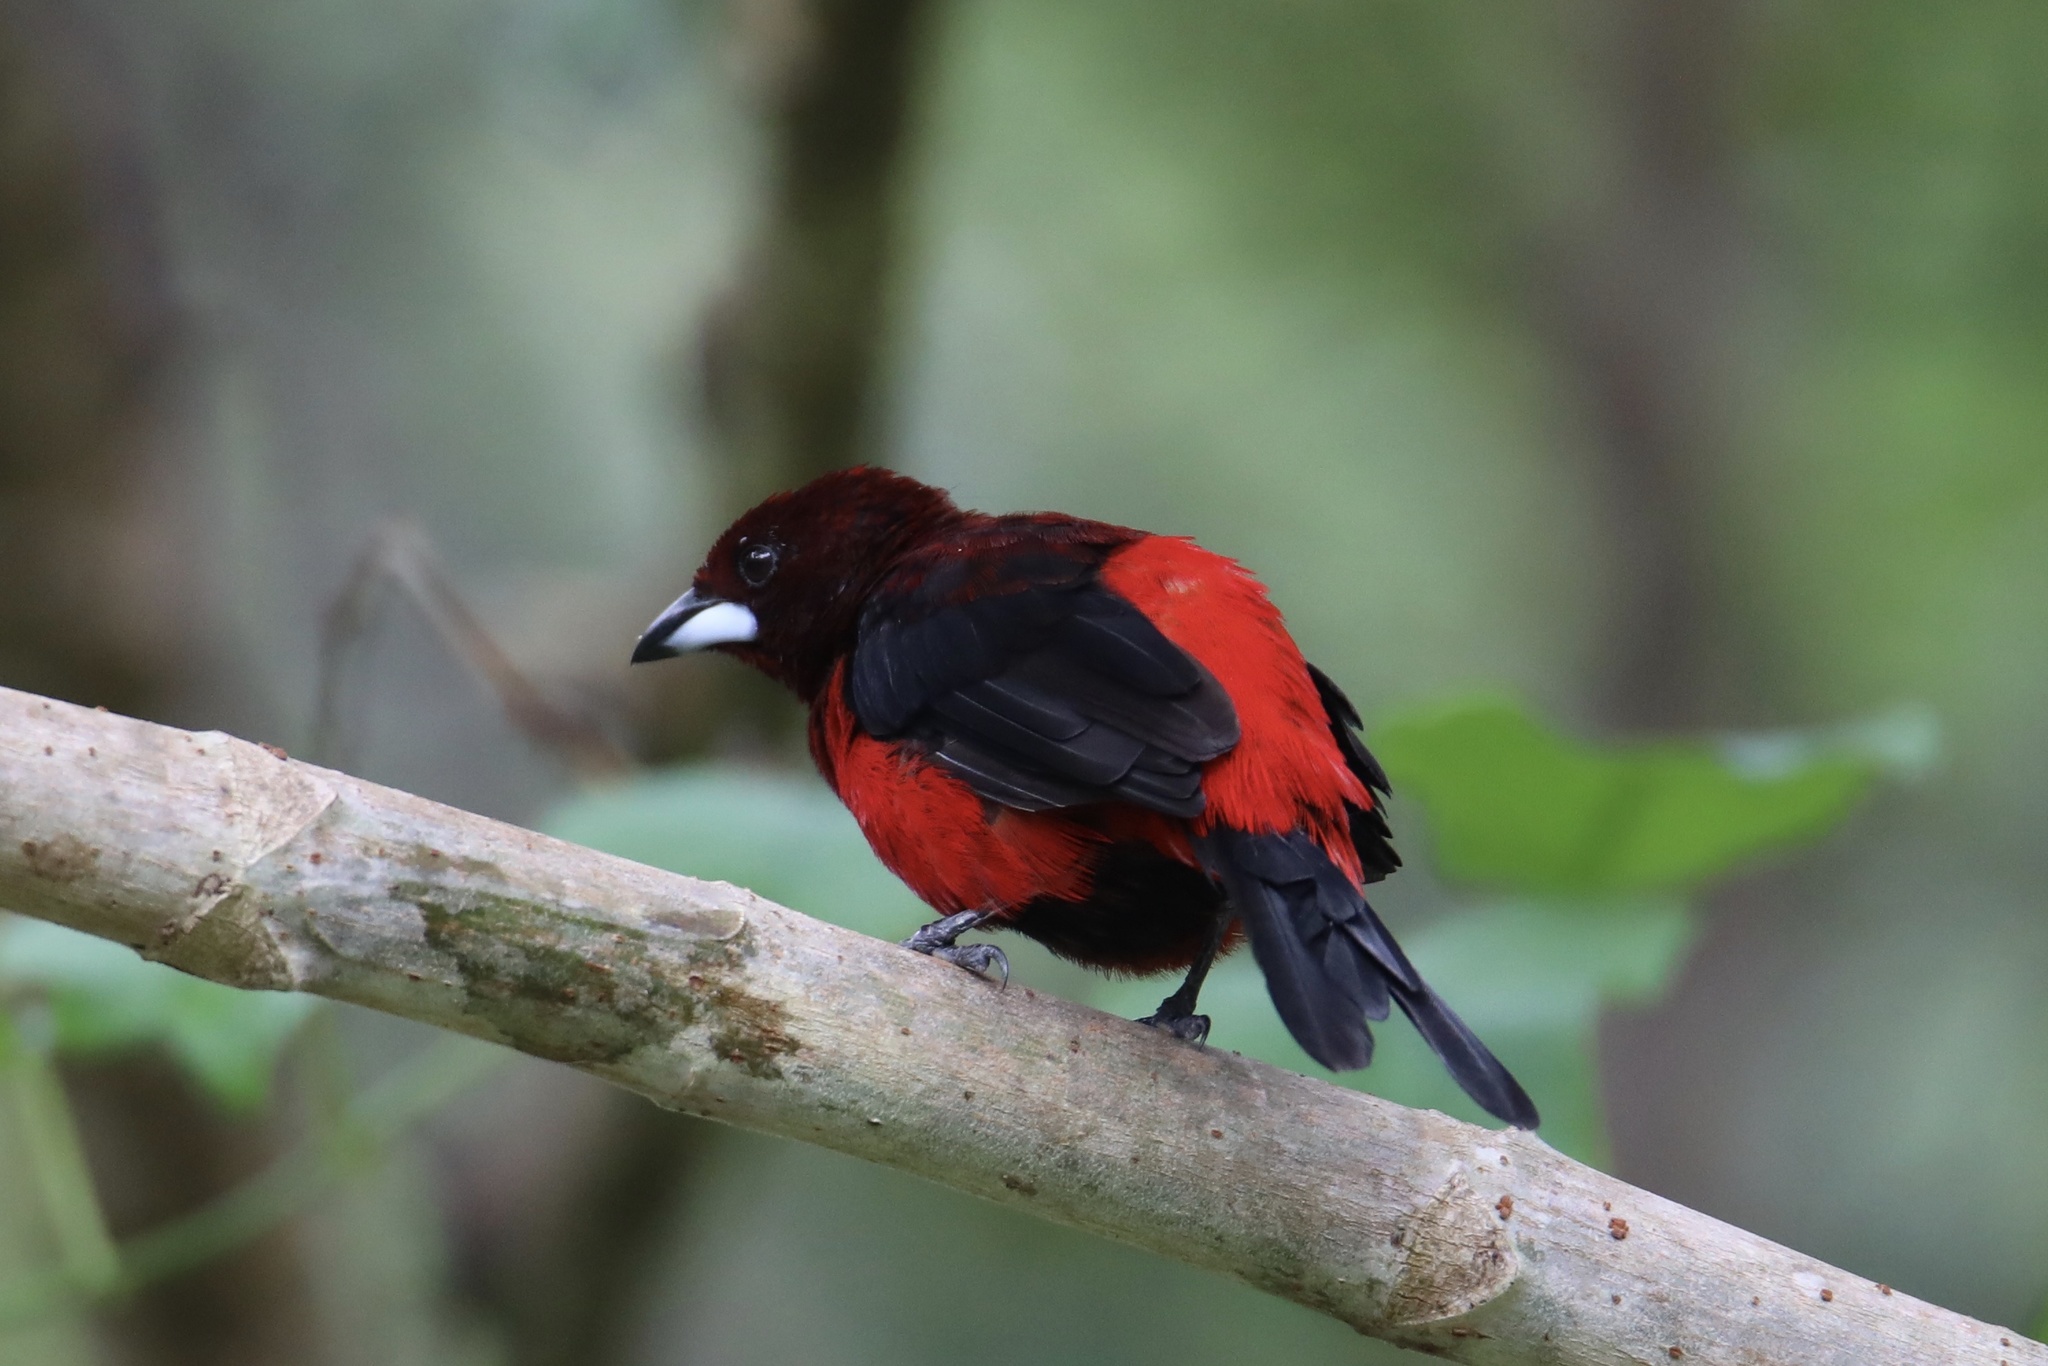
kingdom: Animalia
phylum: Chordata
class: Aves
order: Passeriformes
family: Thraupidae
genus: Ramphocelus
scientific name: Ramphocelus dimidiatus
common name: Crimson-backed tanager
